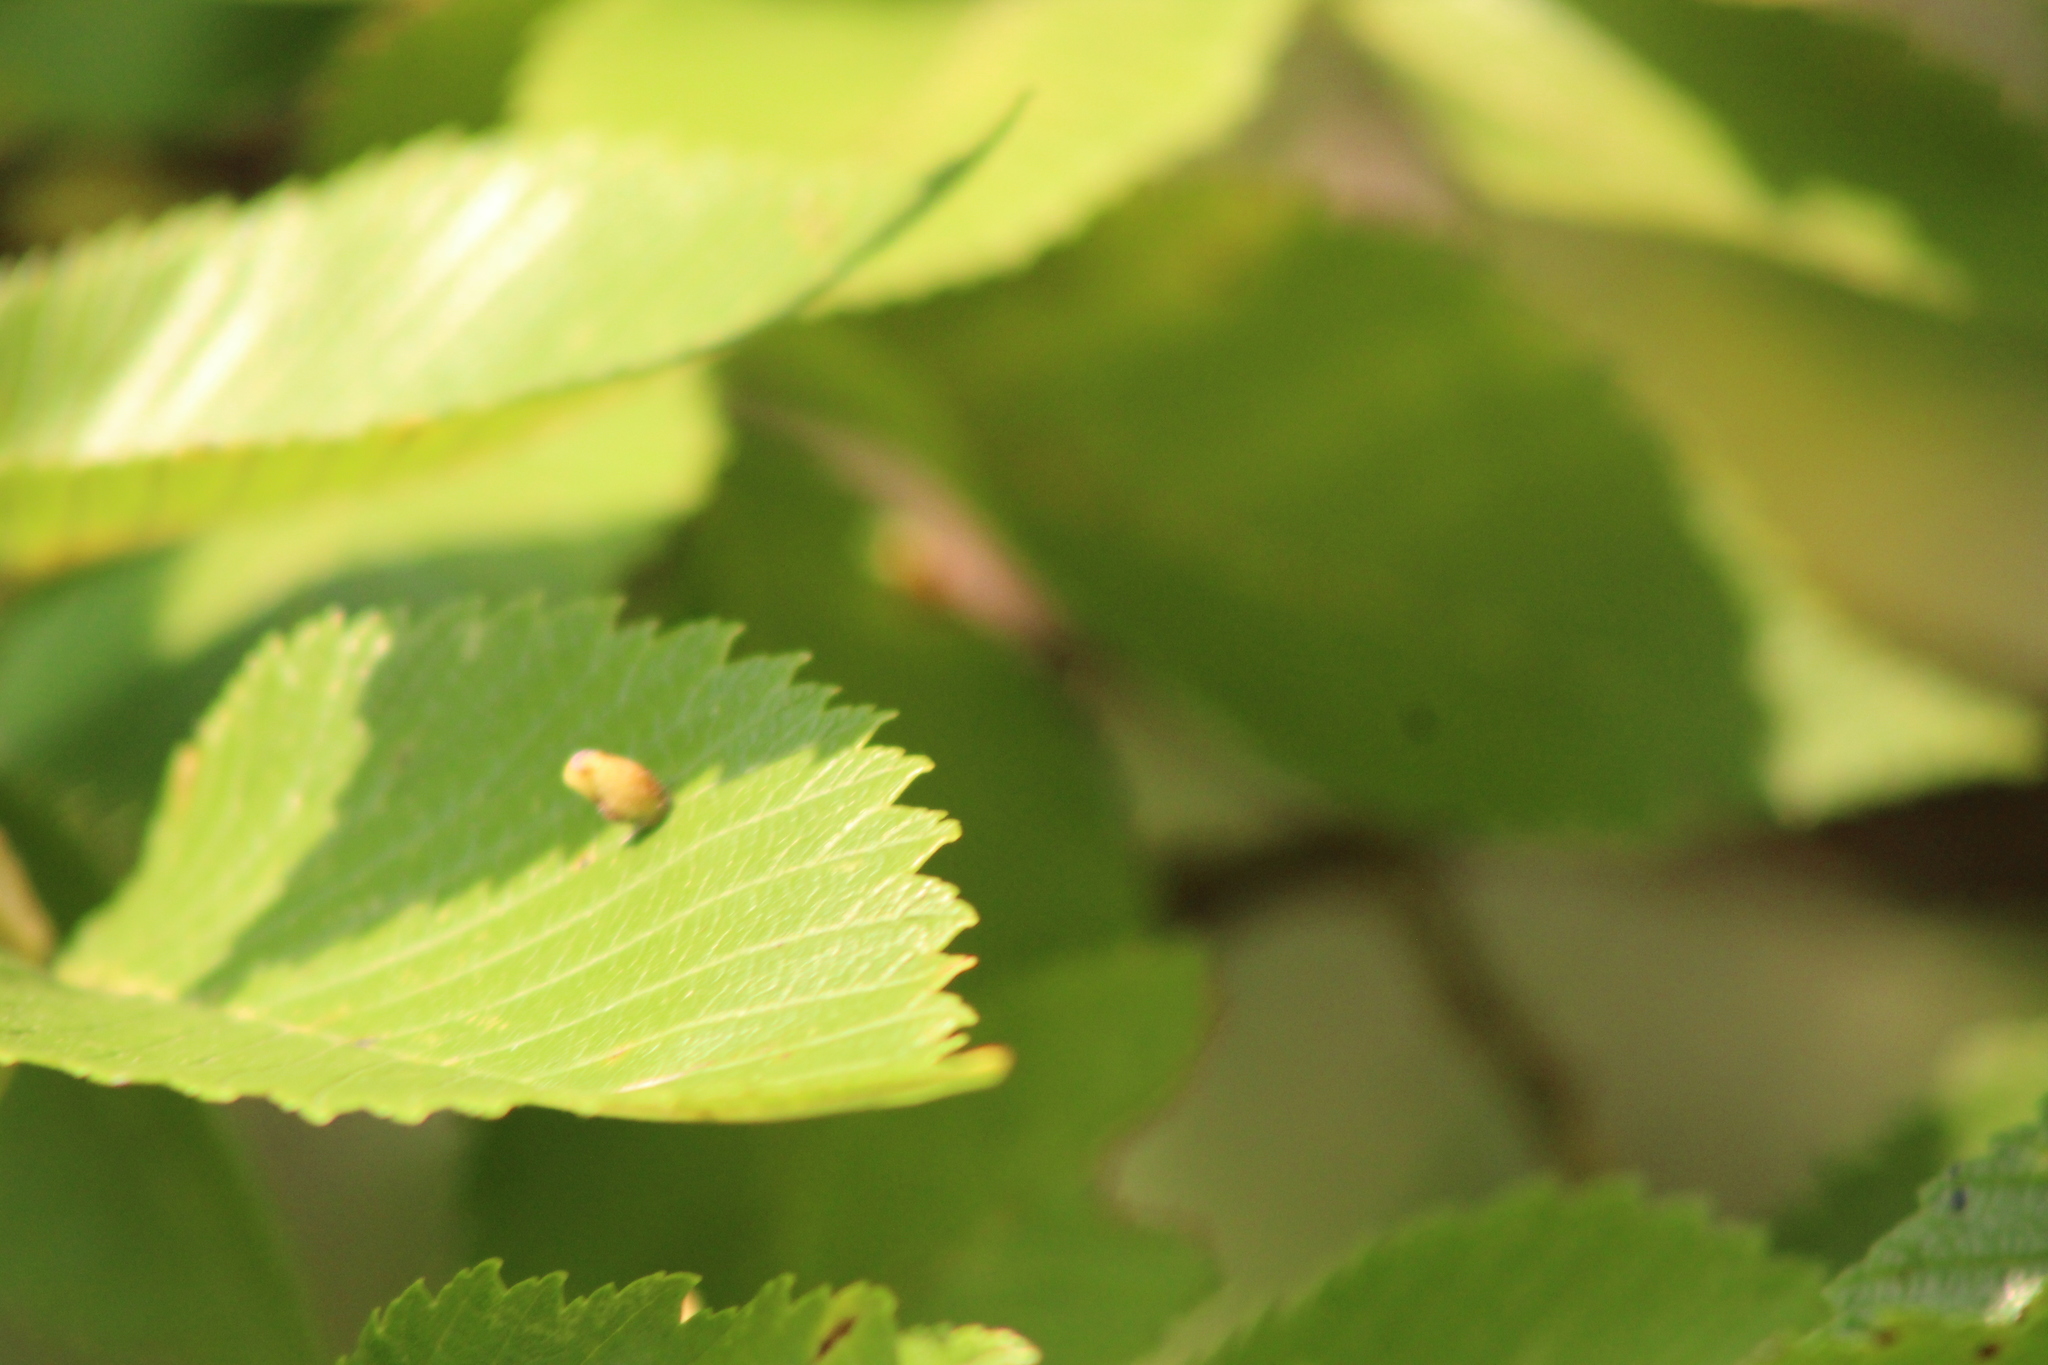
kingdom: Animalia
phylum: Arthropoda
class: Arachnida
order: Trombidiformes
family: Eriophyidae
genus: Aceria
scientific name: Aceria
